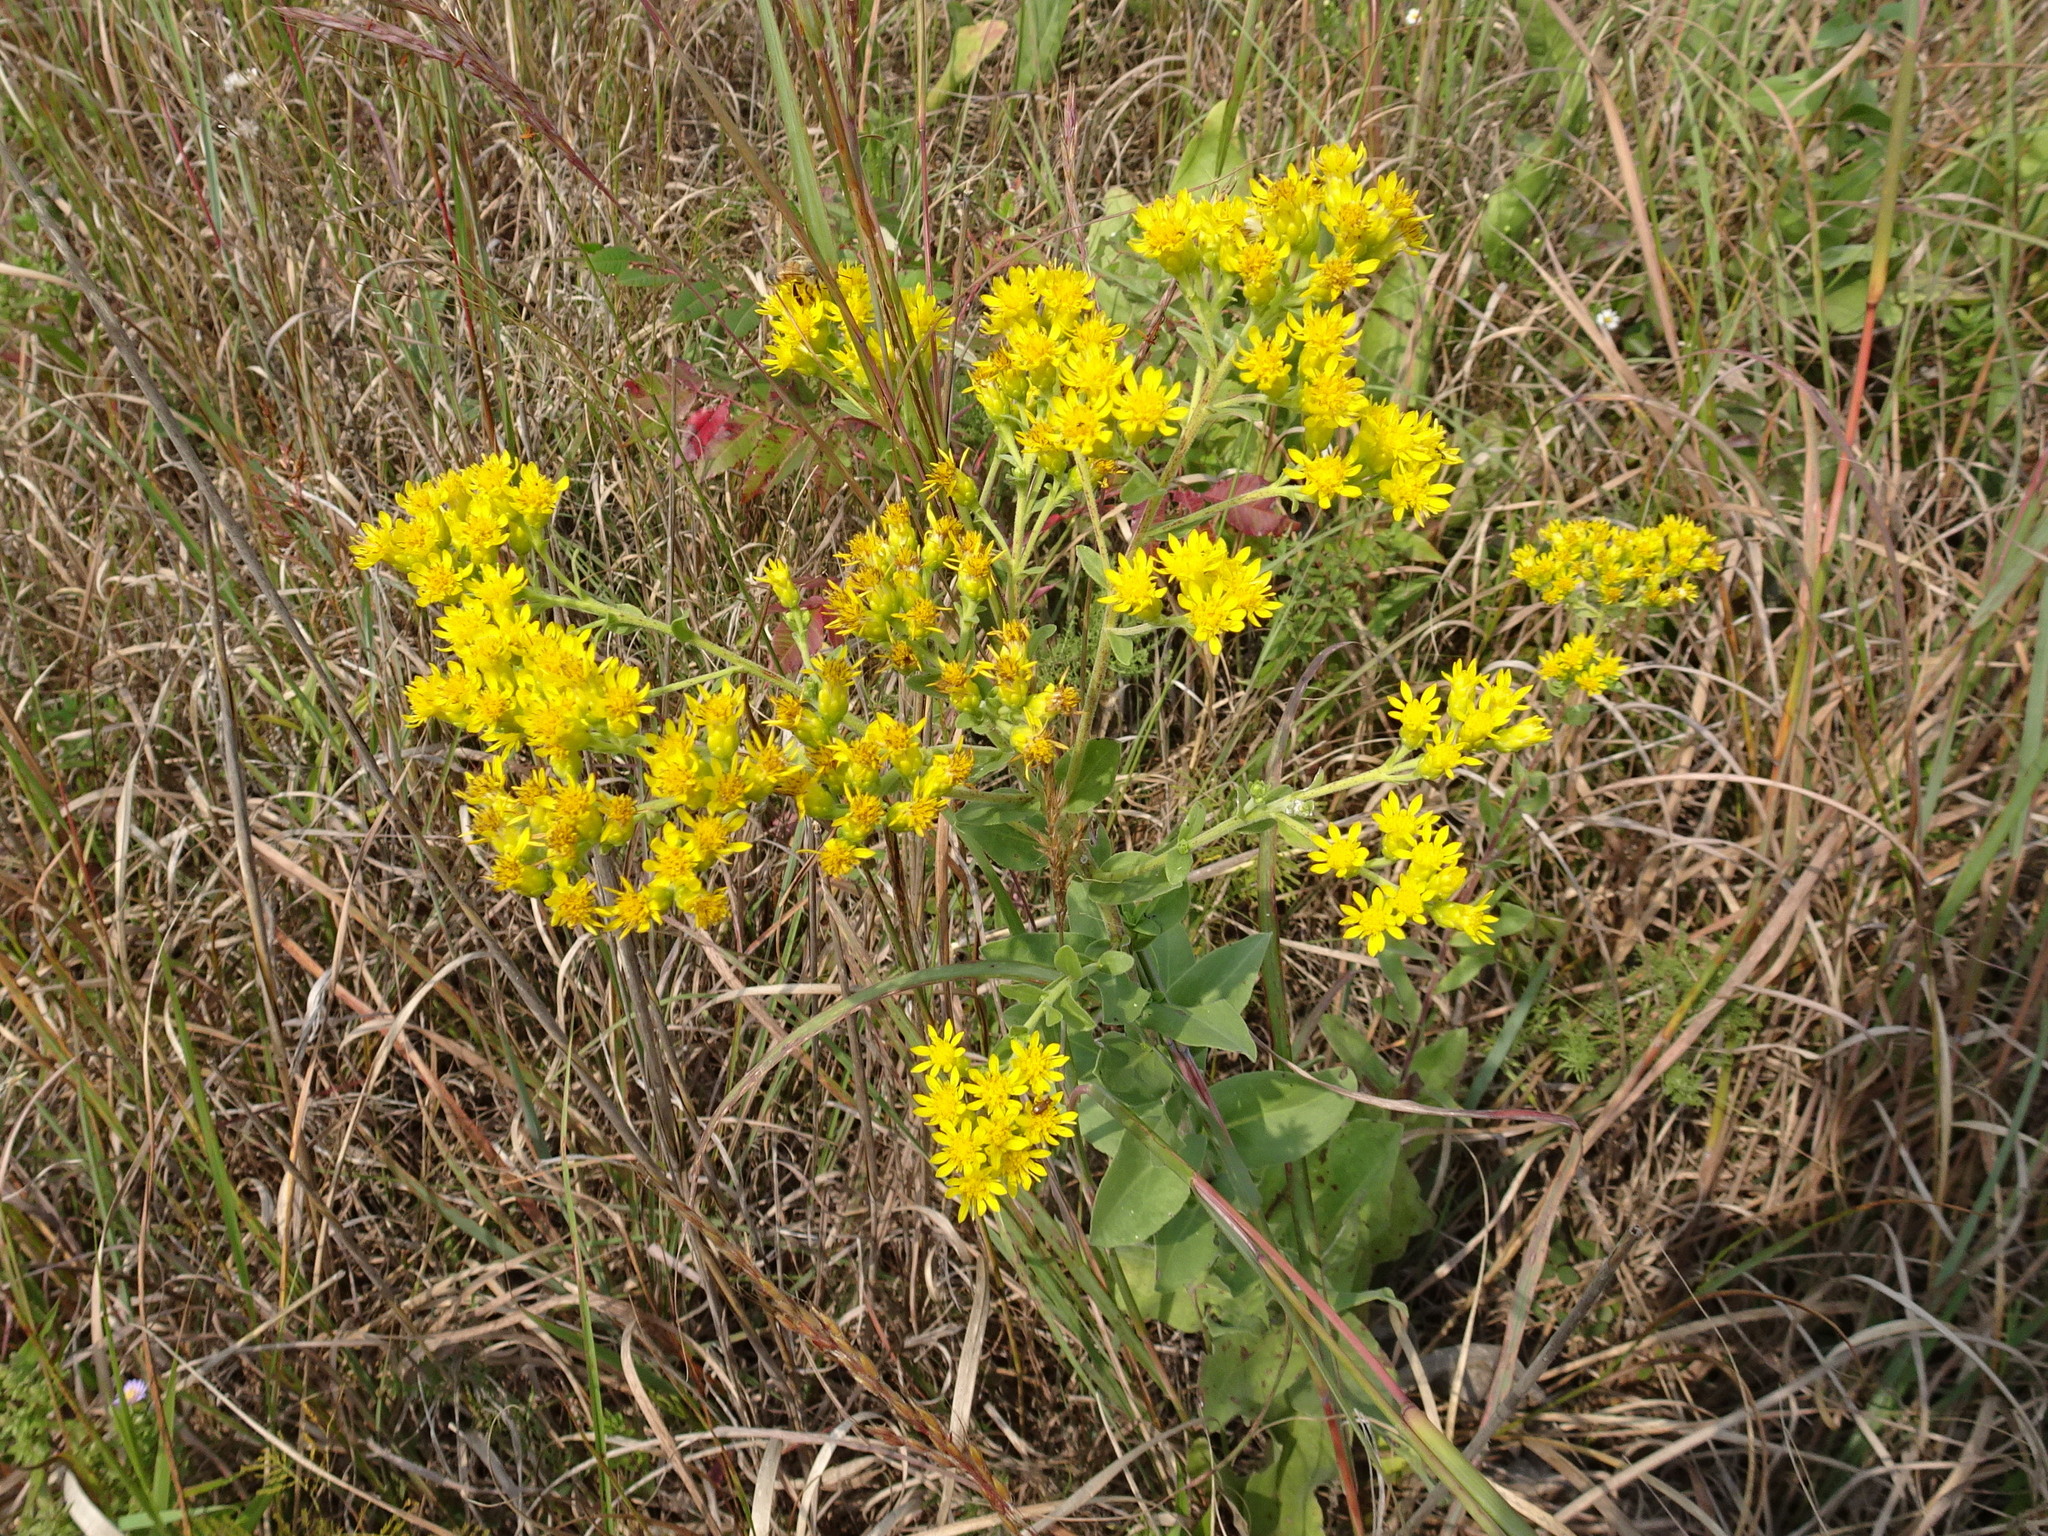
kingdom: Plantae
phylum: Tracheophyta
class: Magnoliopsida
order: Asterales
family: Asteraceae
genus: Solidago
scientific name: Solidago rigida
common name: Rigid goldenrod
